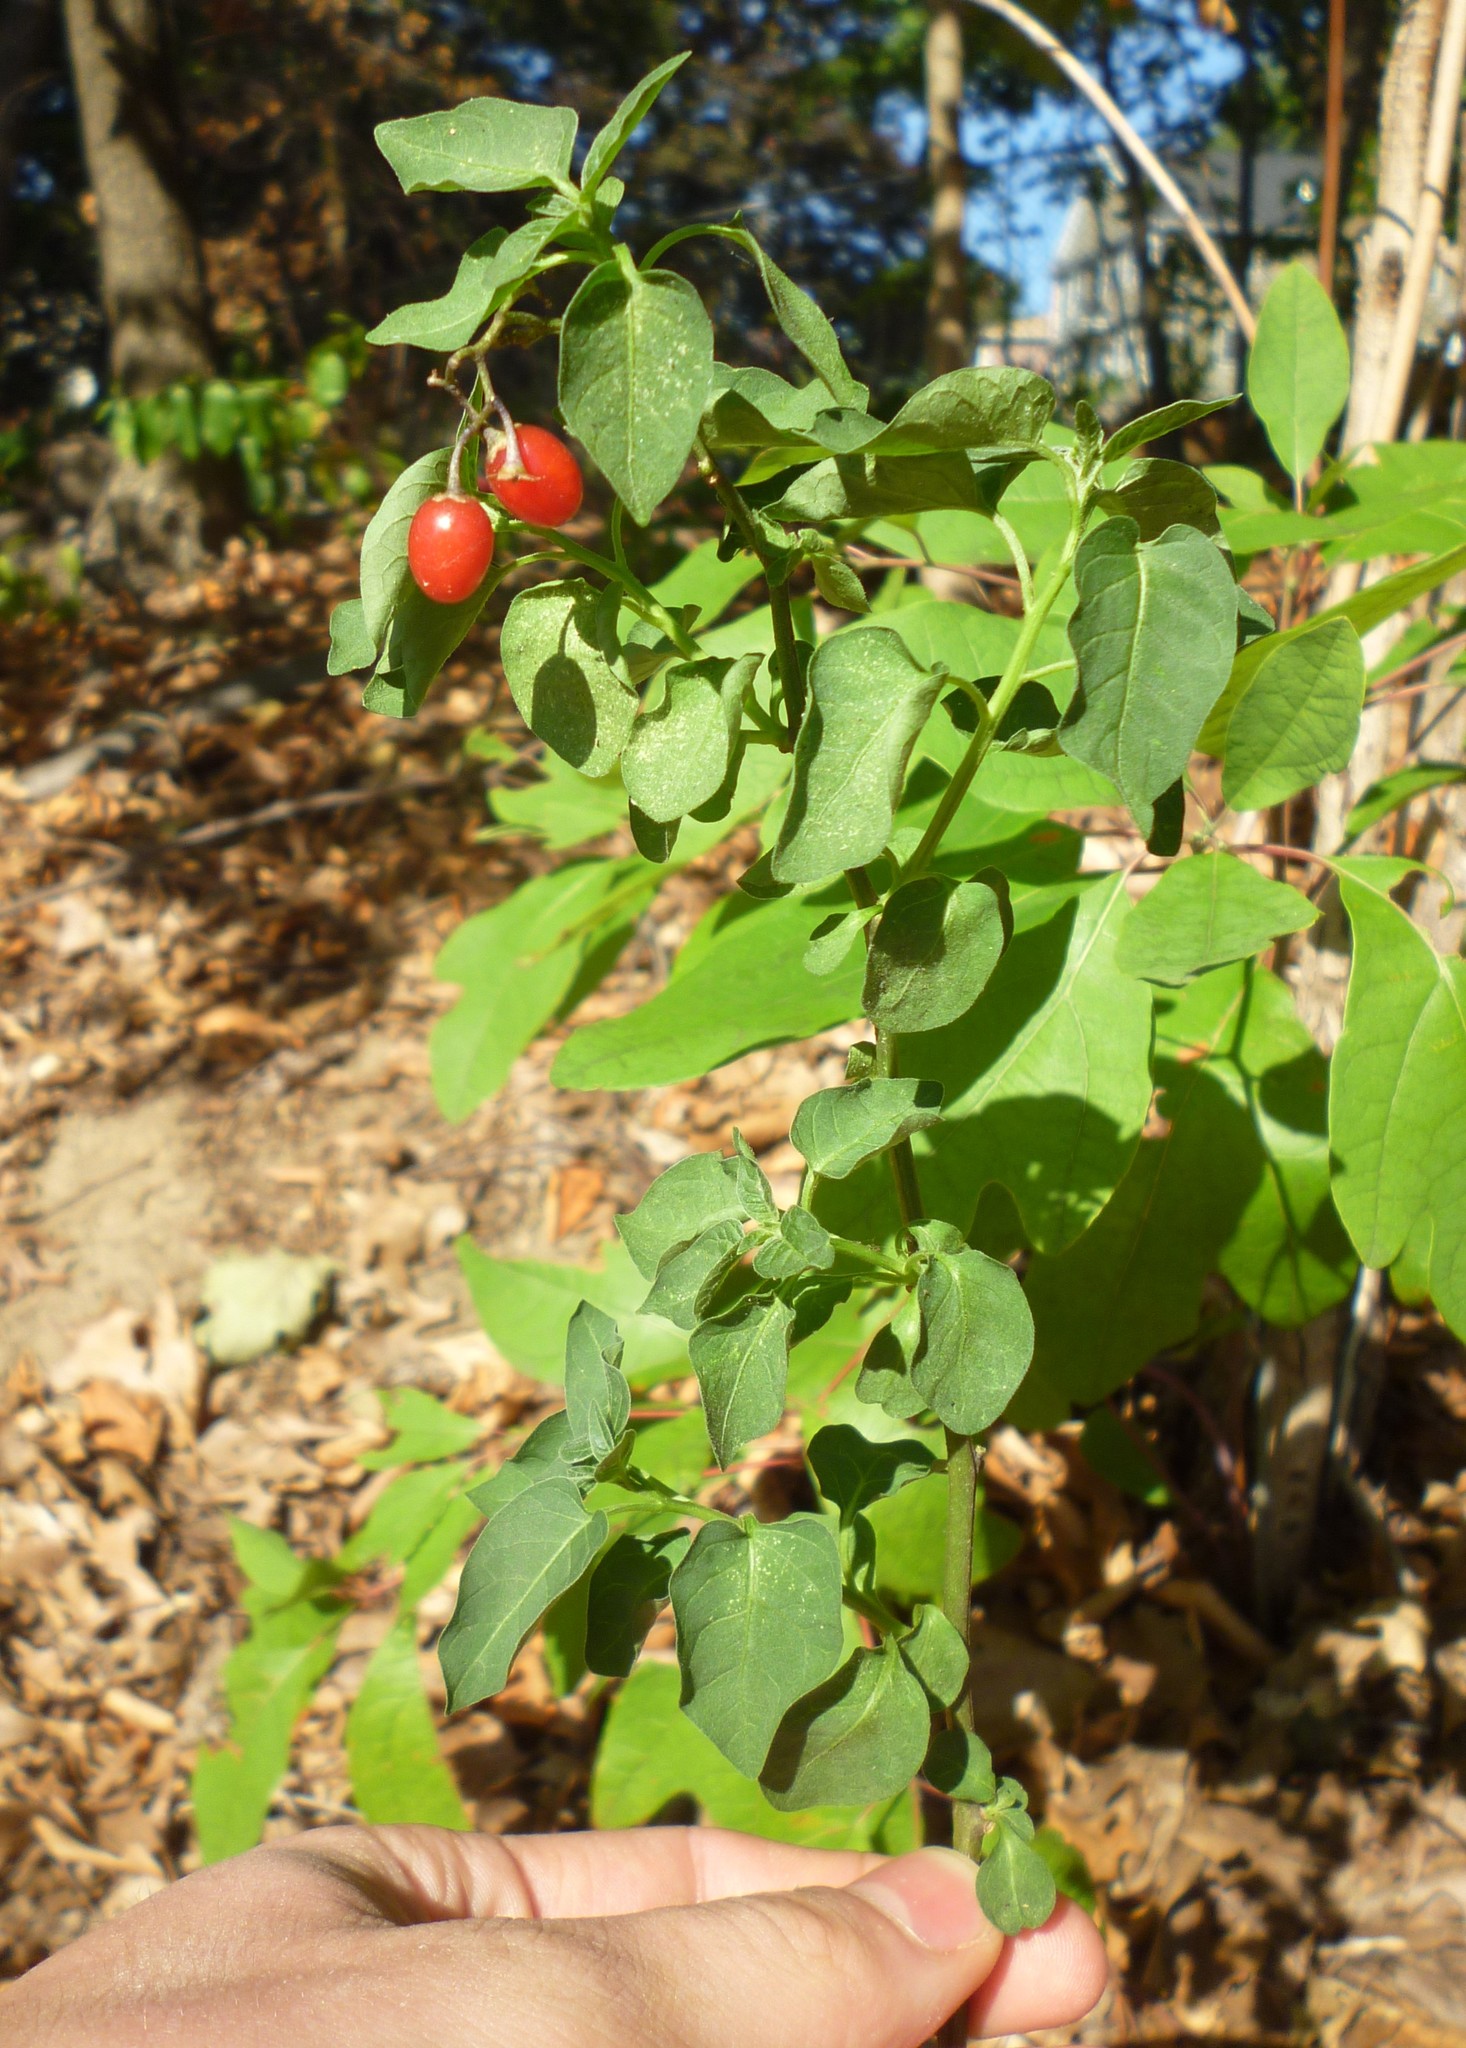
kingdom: Plantae
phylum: Tracheophyta
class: Magnoliopsida
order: Solanales
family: Solanaceae
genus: Solanum
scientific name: Solanum dulcamara
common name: Climbing nightshade
